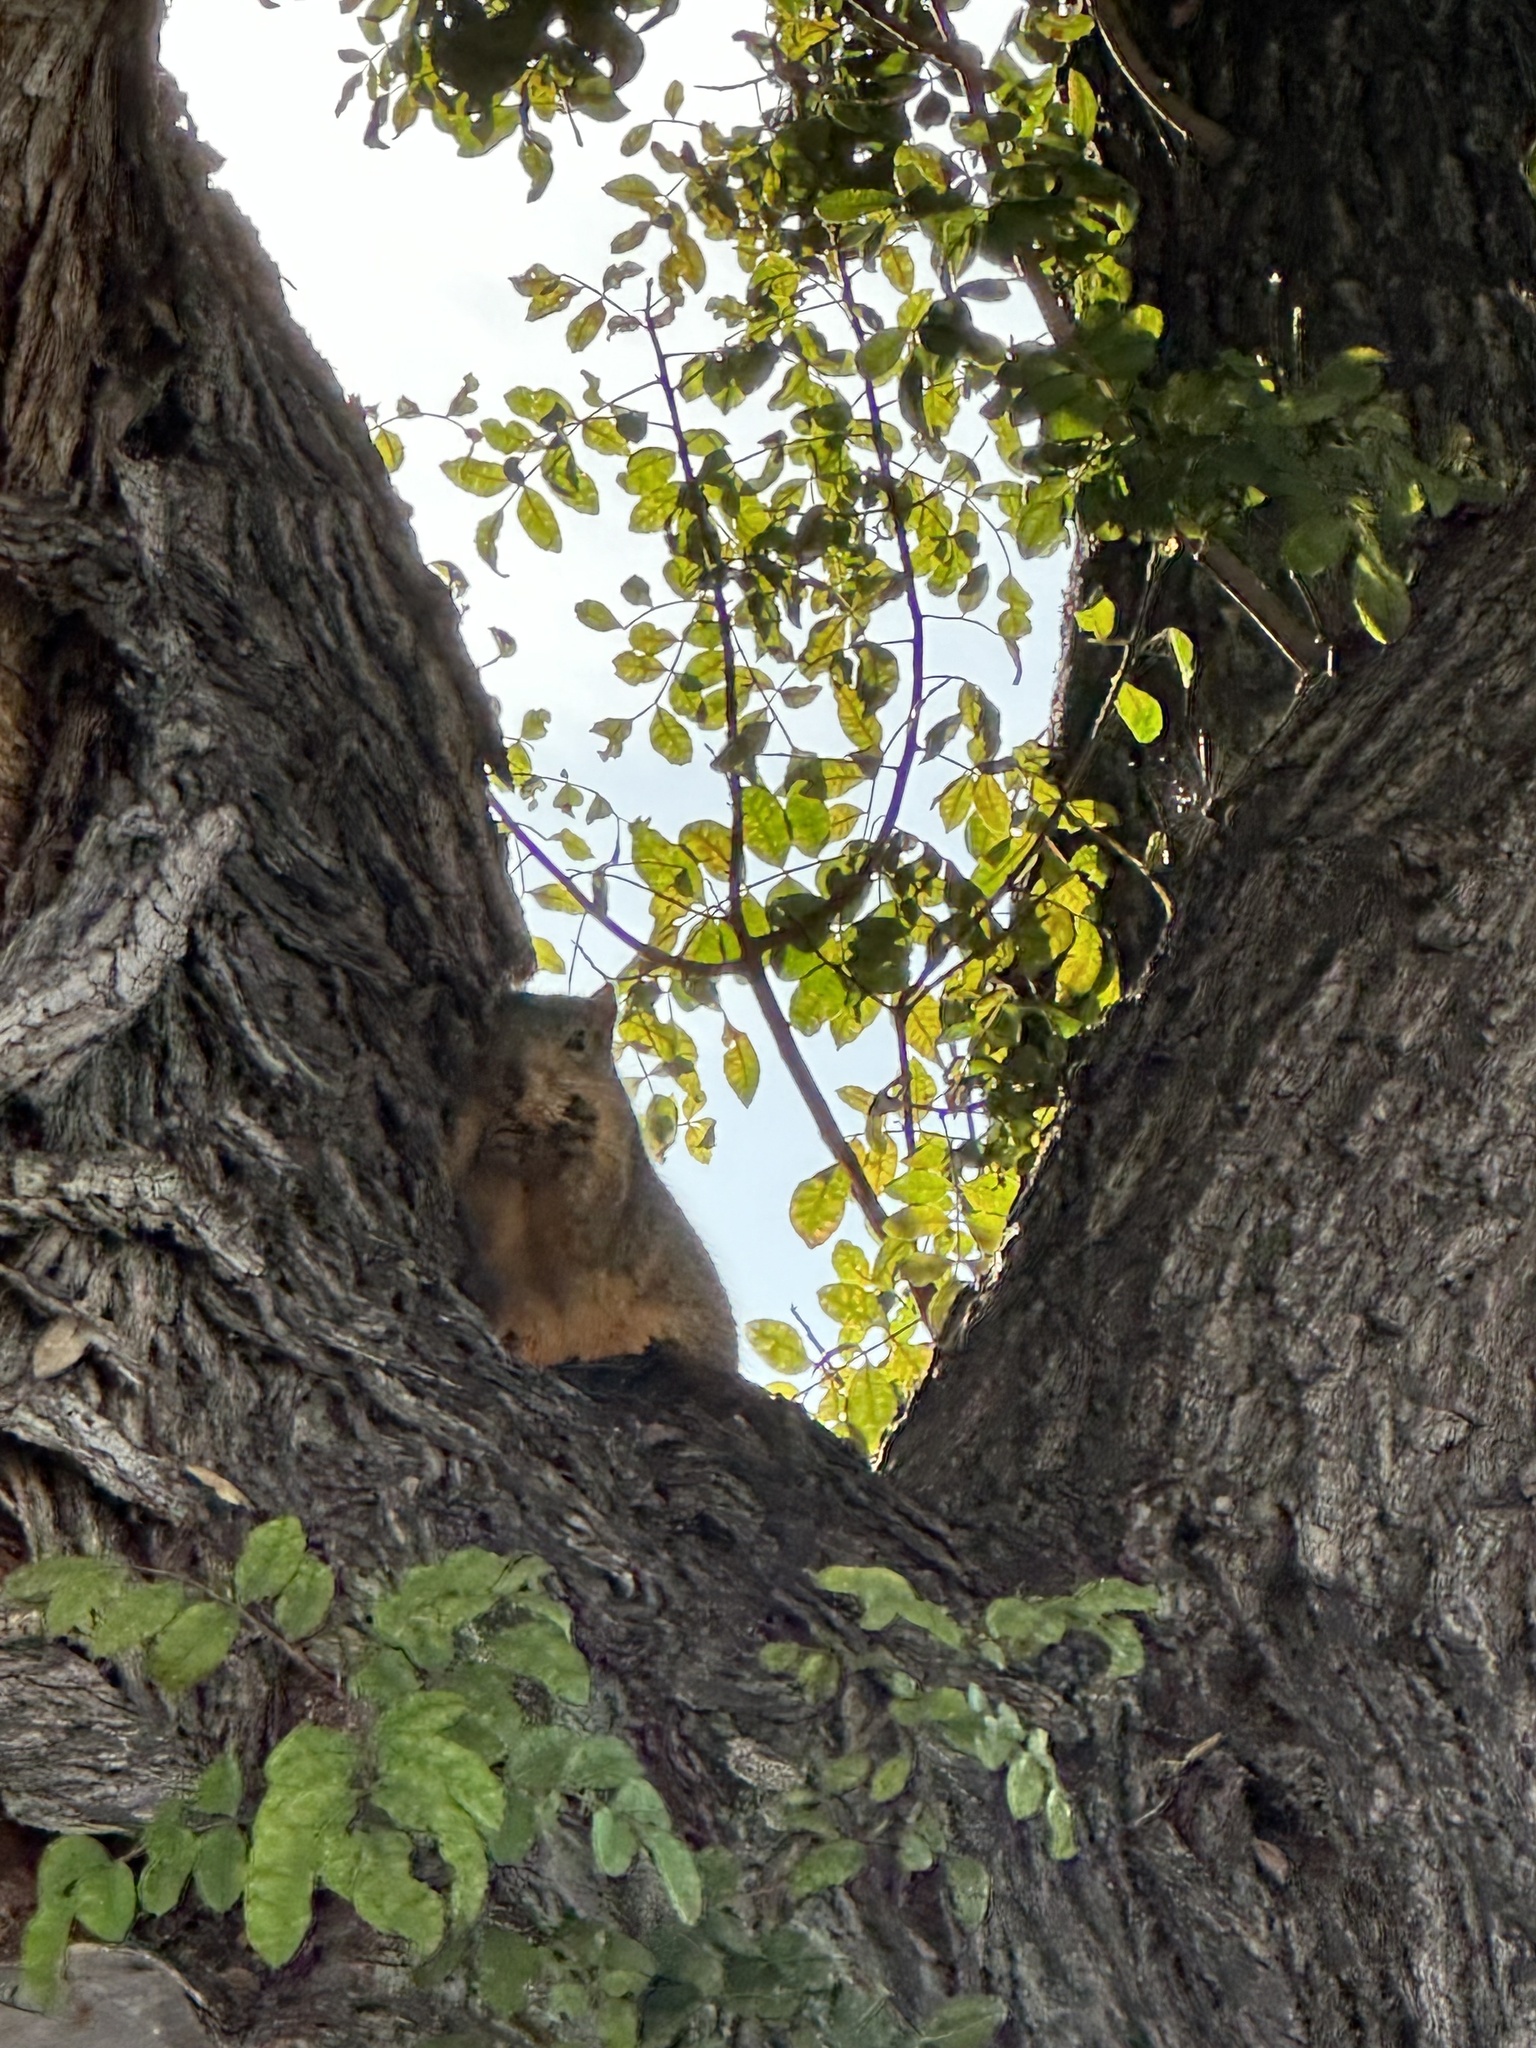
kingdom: Animalia
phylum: Chordata
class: Mammalia
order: Rodentia
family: Sciuridae
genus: Sciurus
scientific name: Sciurus niger
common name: Fox squirrel
